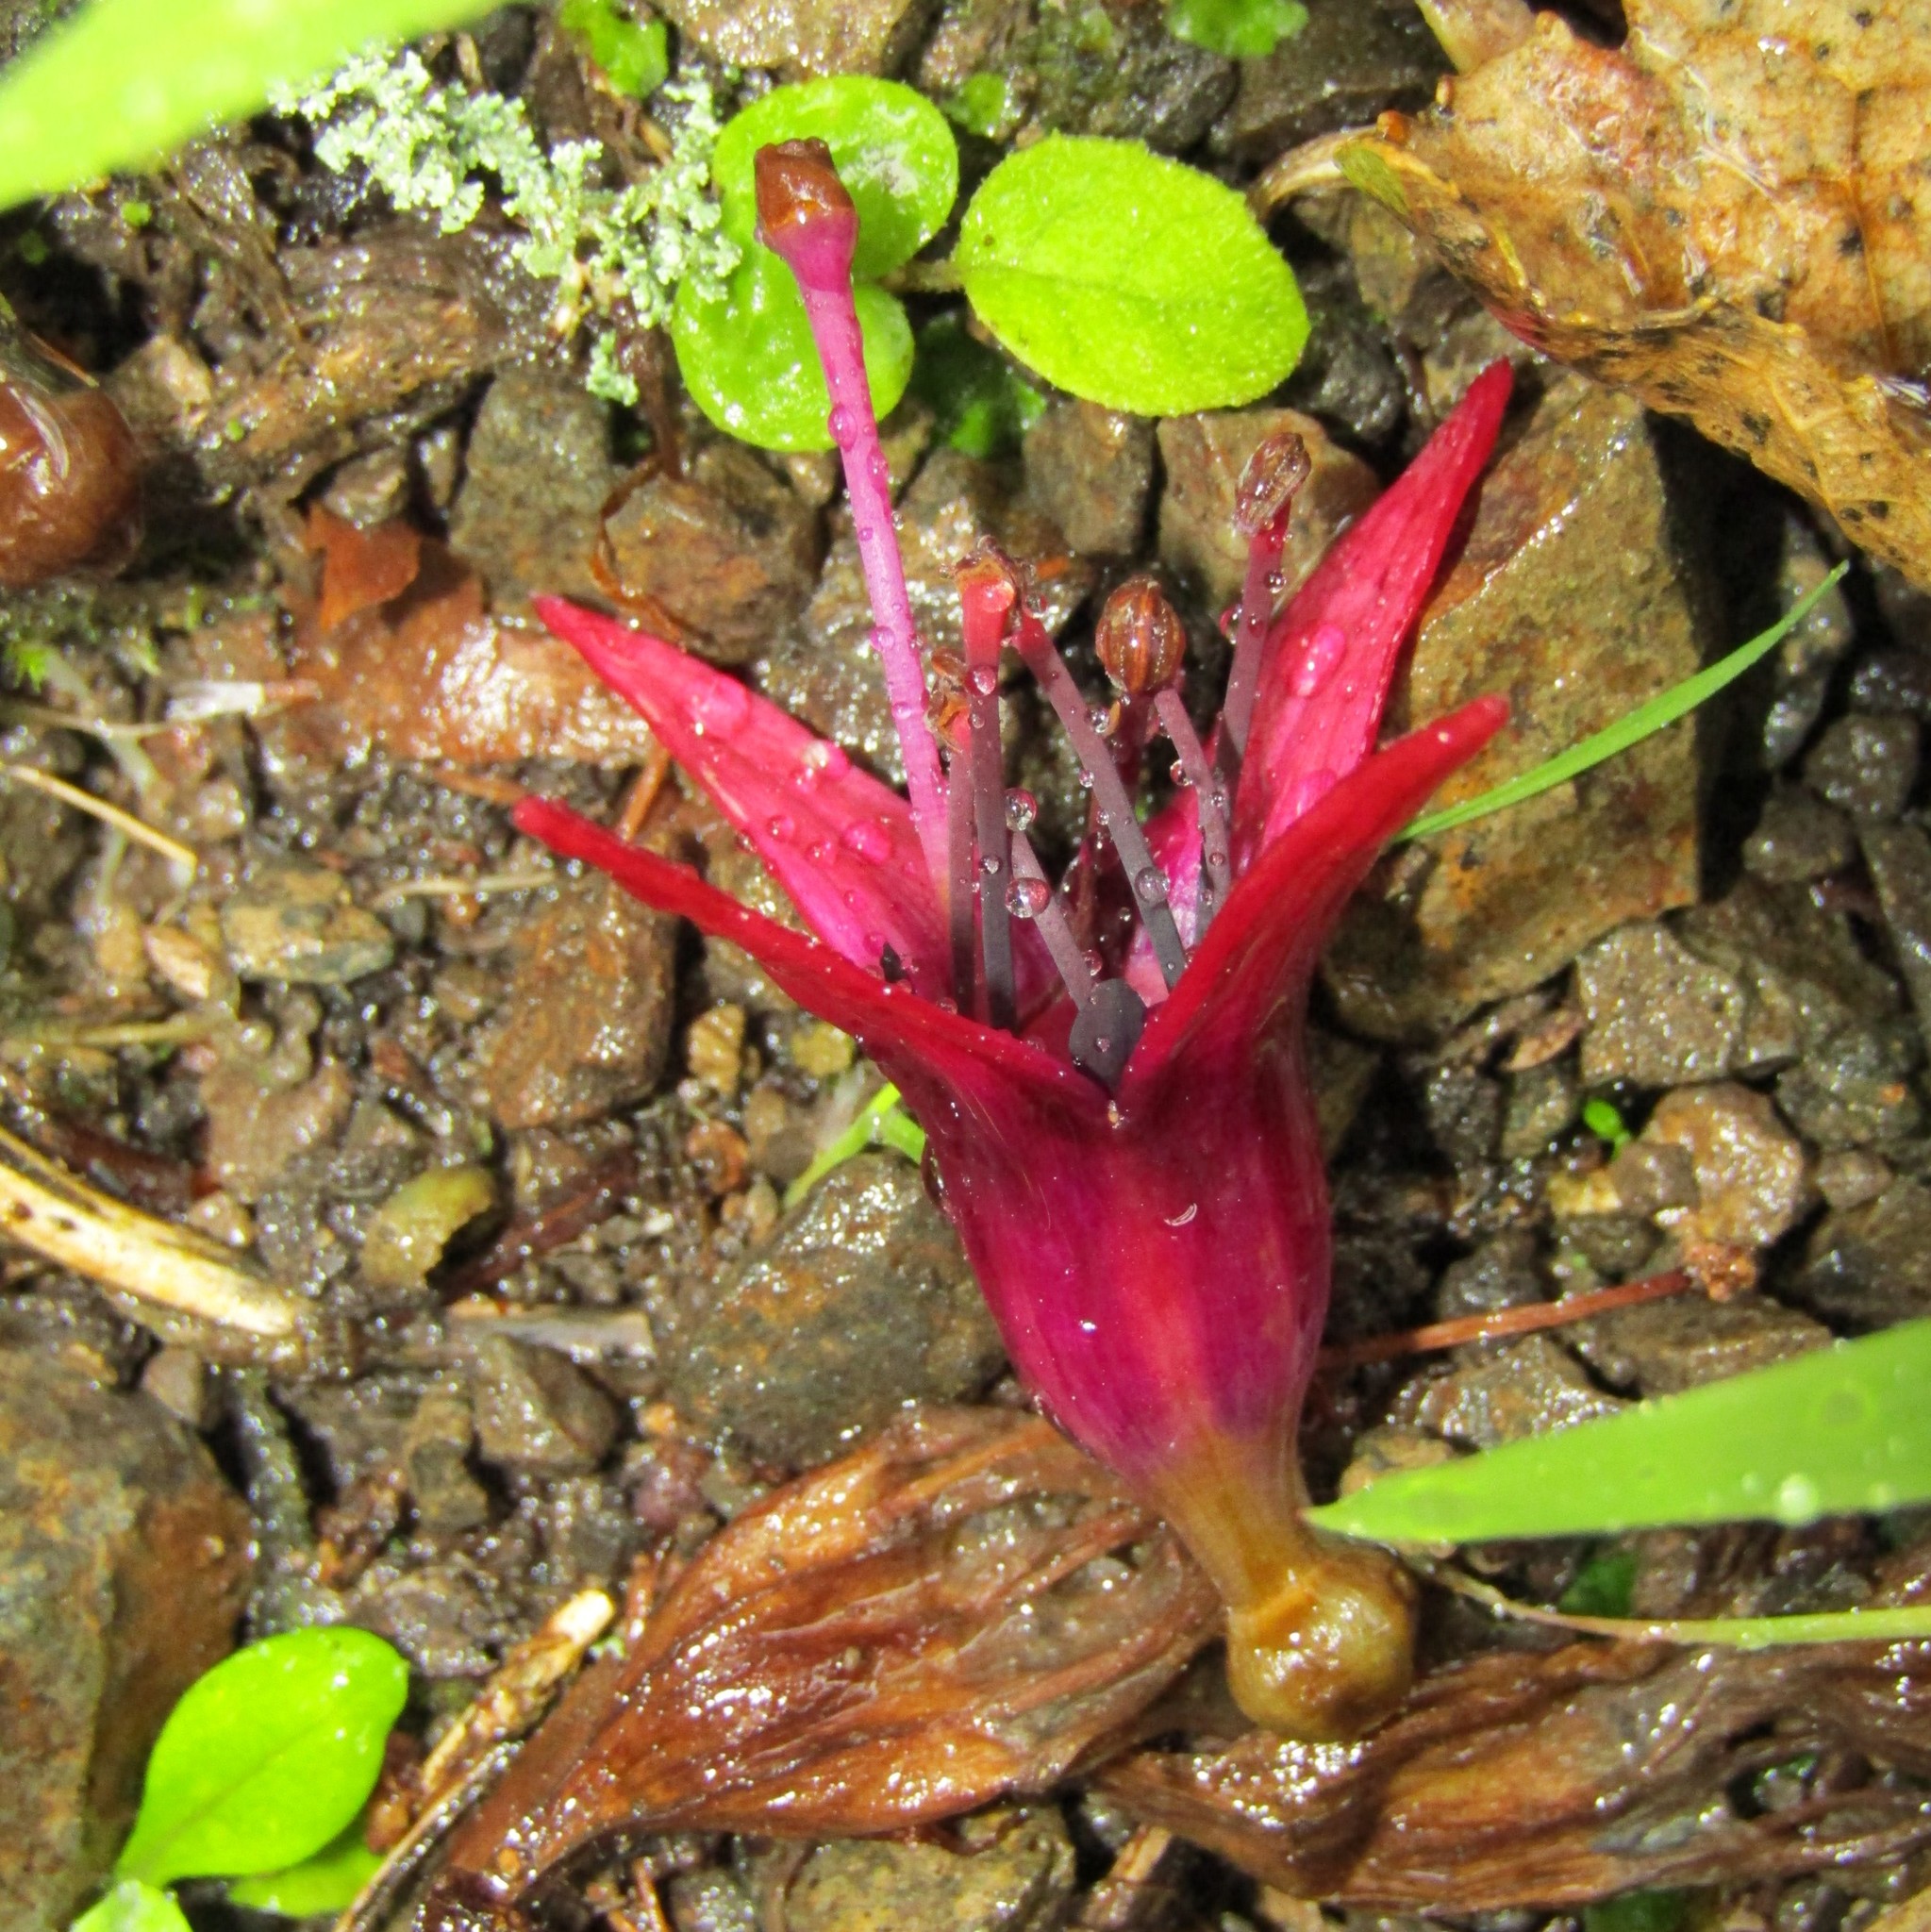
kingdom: Plantae
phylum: Tracheophyta
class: Magnoliopsida
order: Myrtales
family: Onagraceae
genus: Fuchsia
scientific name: Fuchsia excorticata
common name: Tree fuchsia
